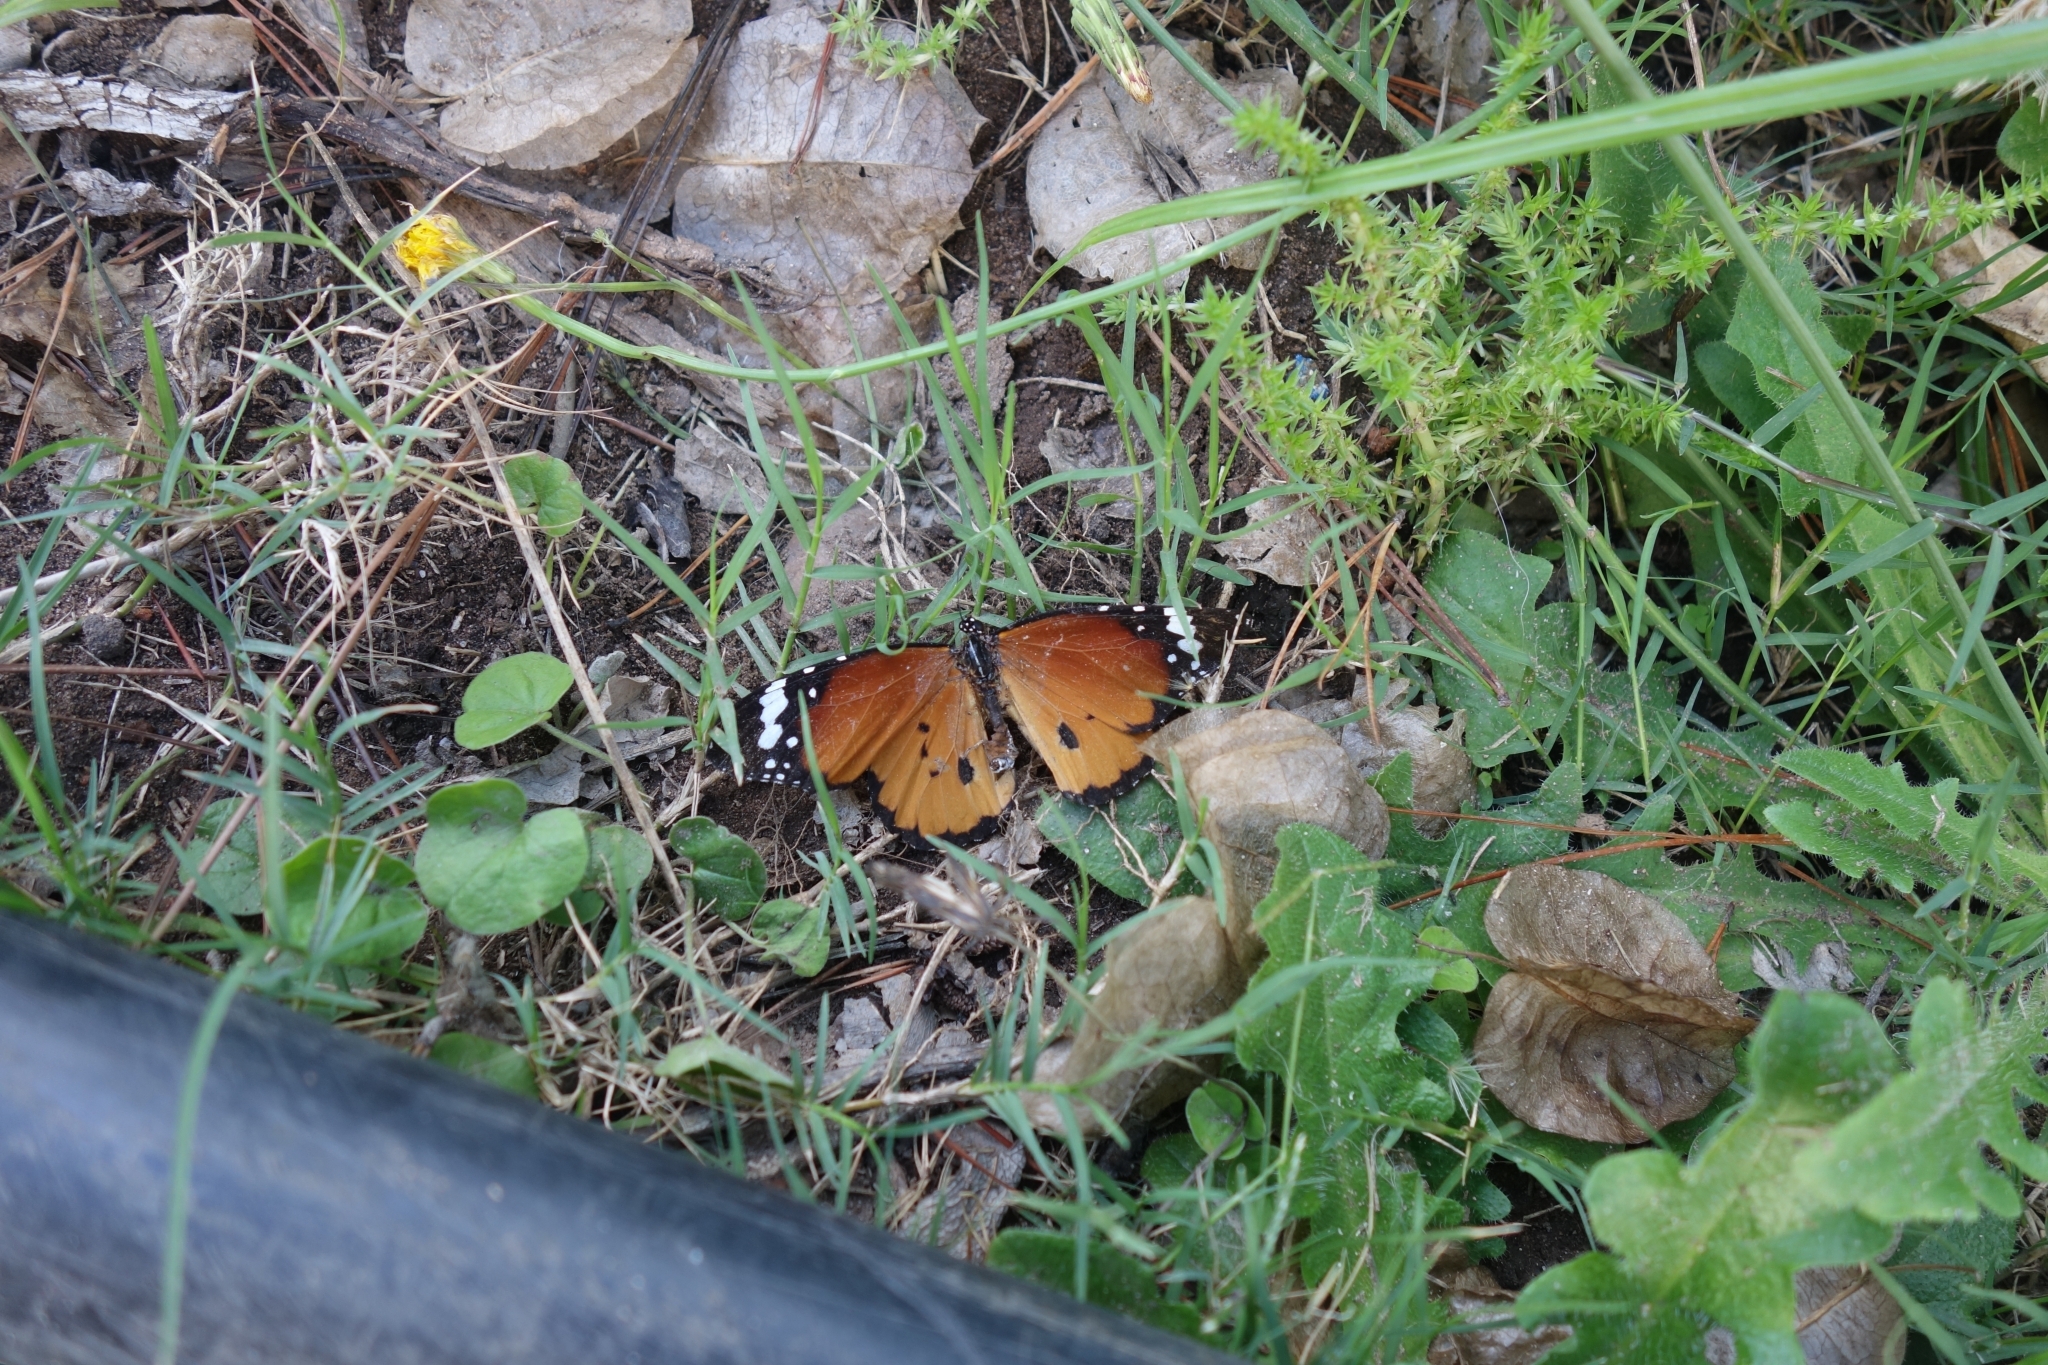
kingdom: Animalia
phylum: Arthropoda
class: Insecta
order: Lepidoptera
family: Nymphalidae
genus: Danaus
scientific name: Danaus chrysippus
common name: Plain tiger
